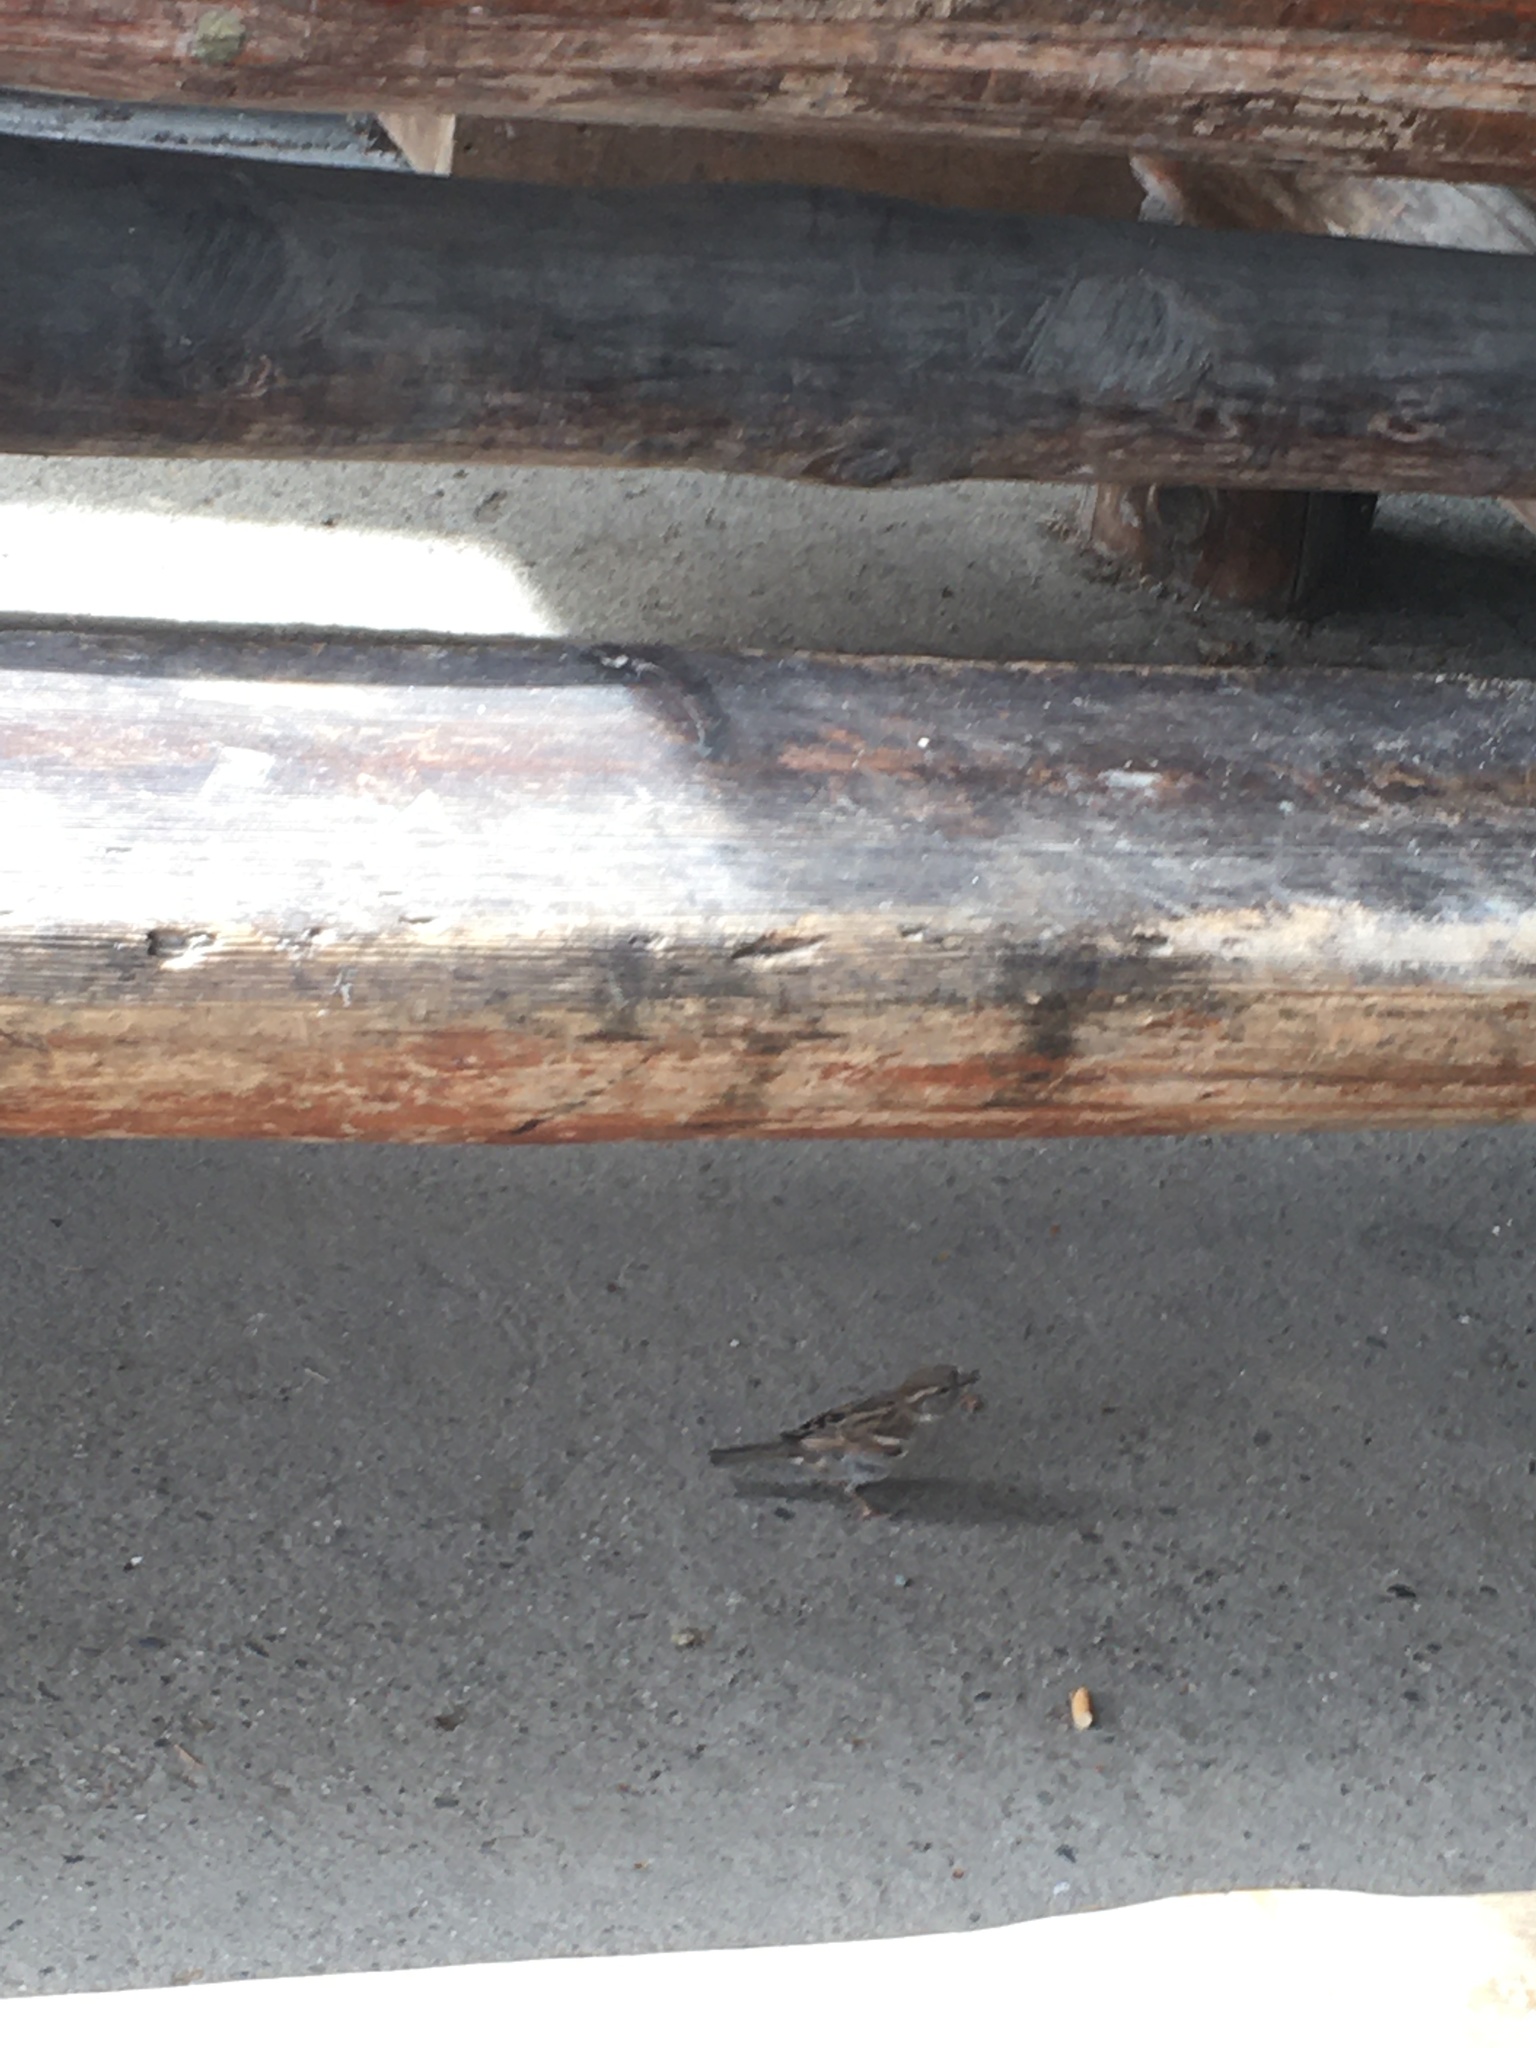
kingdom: Animalia
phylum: Chordata
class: Aves
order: Passeriformes
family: Passeridae
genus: Passer
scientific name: Passer domesticus
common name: House sparrow
